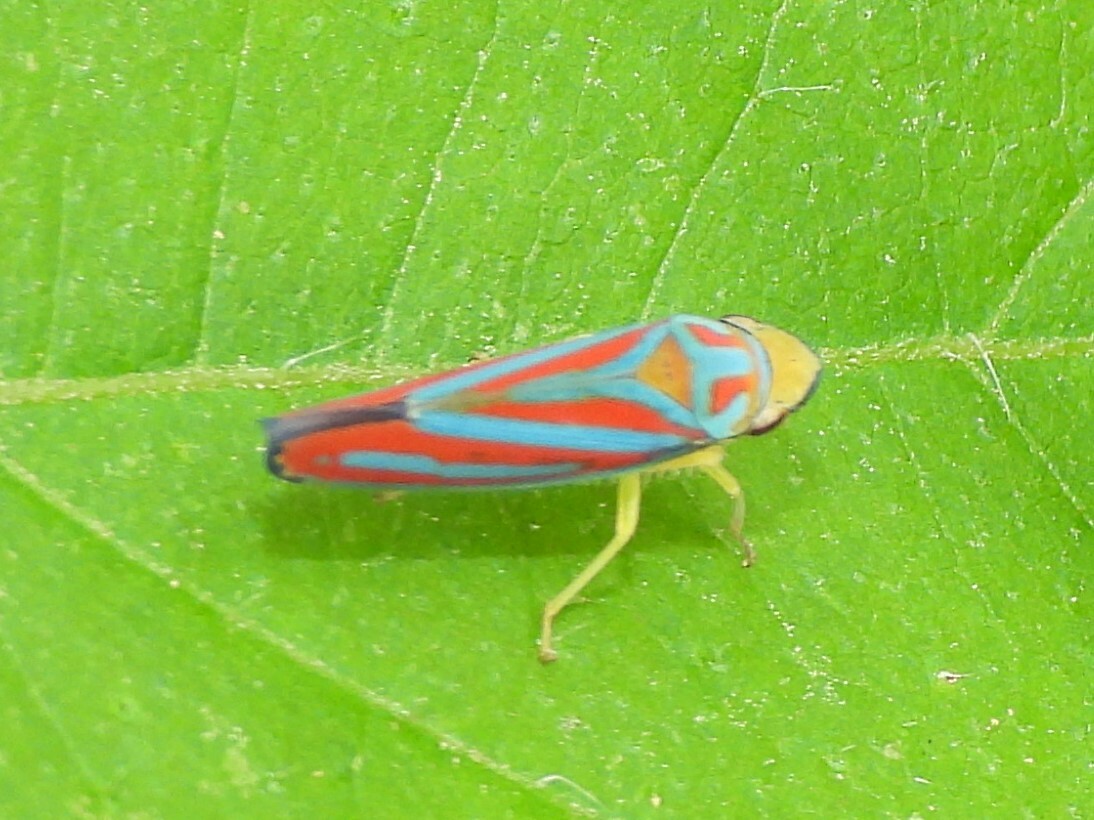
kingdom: Animalia
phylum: Arthropoda
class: Insecta
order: Hemiptera
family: Cicadellidae
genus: Graphocephala
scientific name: Graphocephala coccinea
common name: Candy-striped leafhopper
